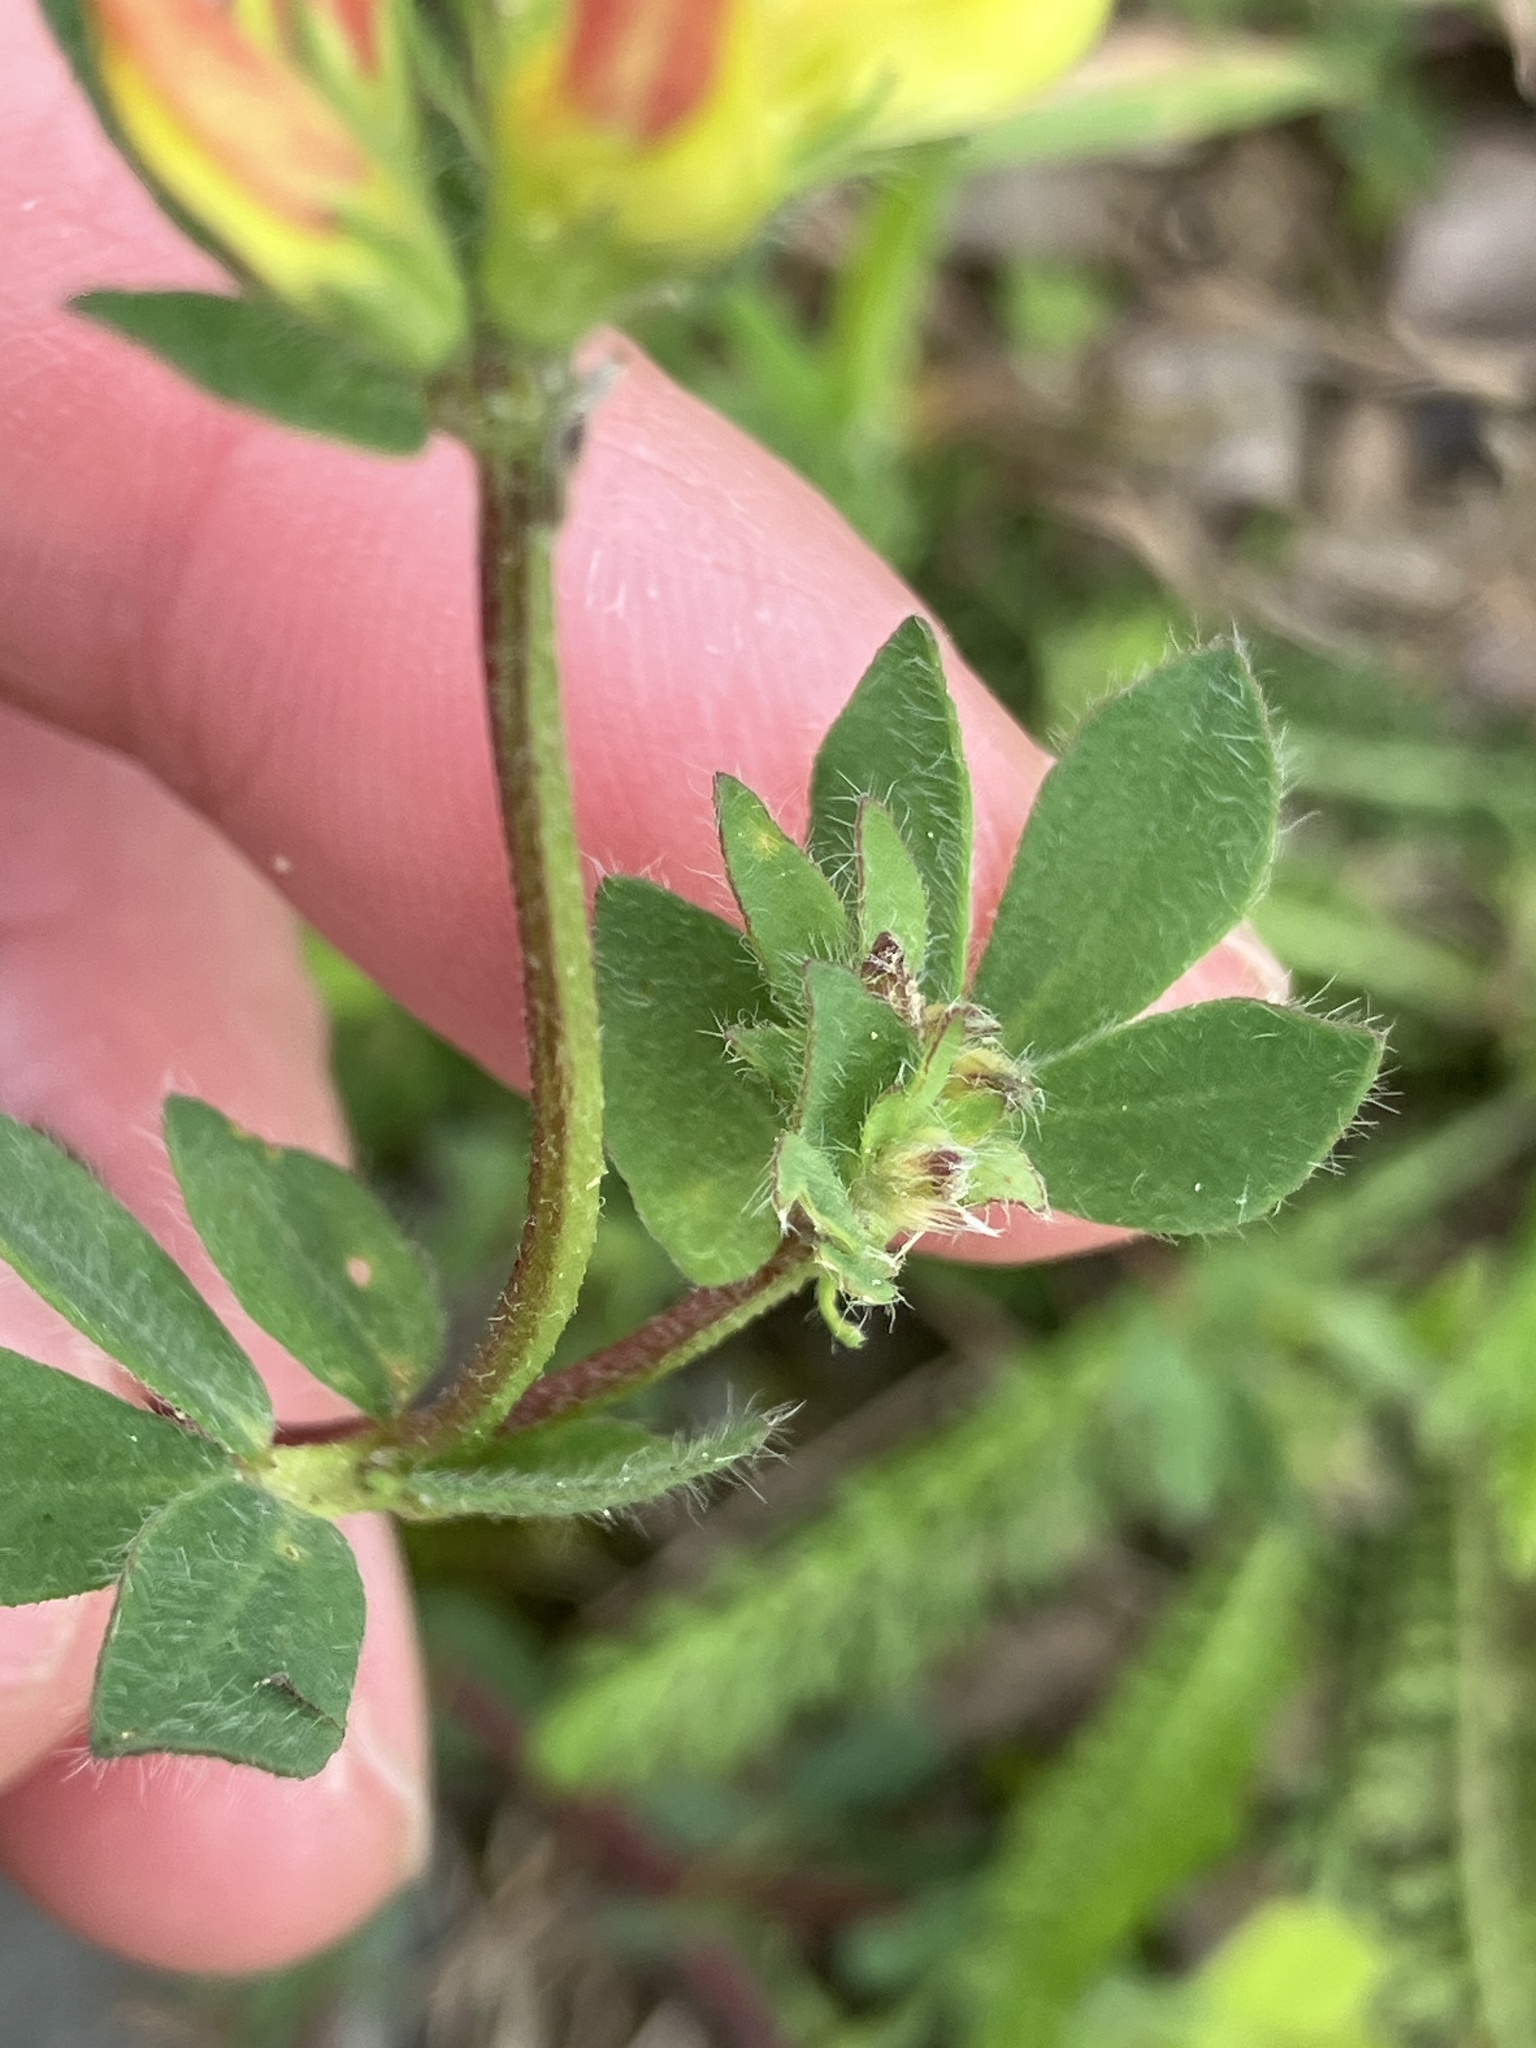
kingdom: Plantae
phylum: Tracheophyta
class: Magnoliopsida
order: Fabales
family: Fabaceae
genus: Lotus
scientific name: Lotus corniculatus
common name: Common bird's-foot-trefoil
